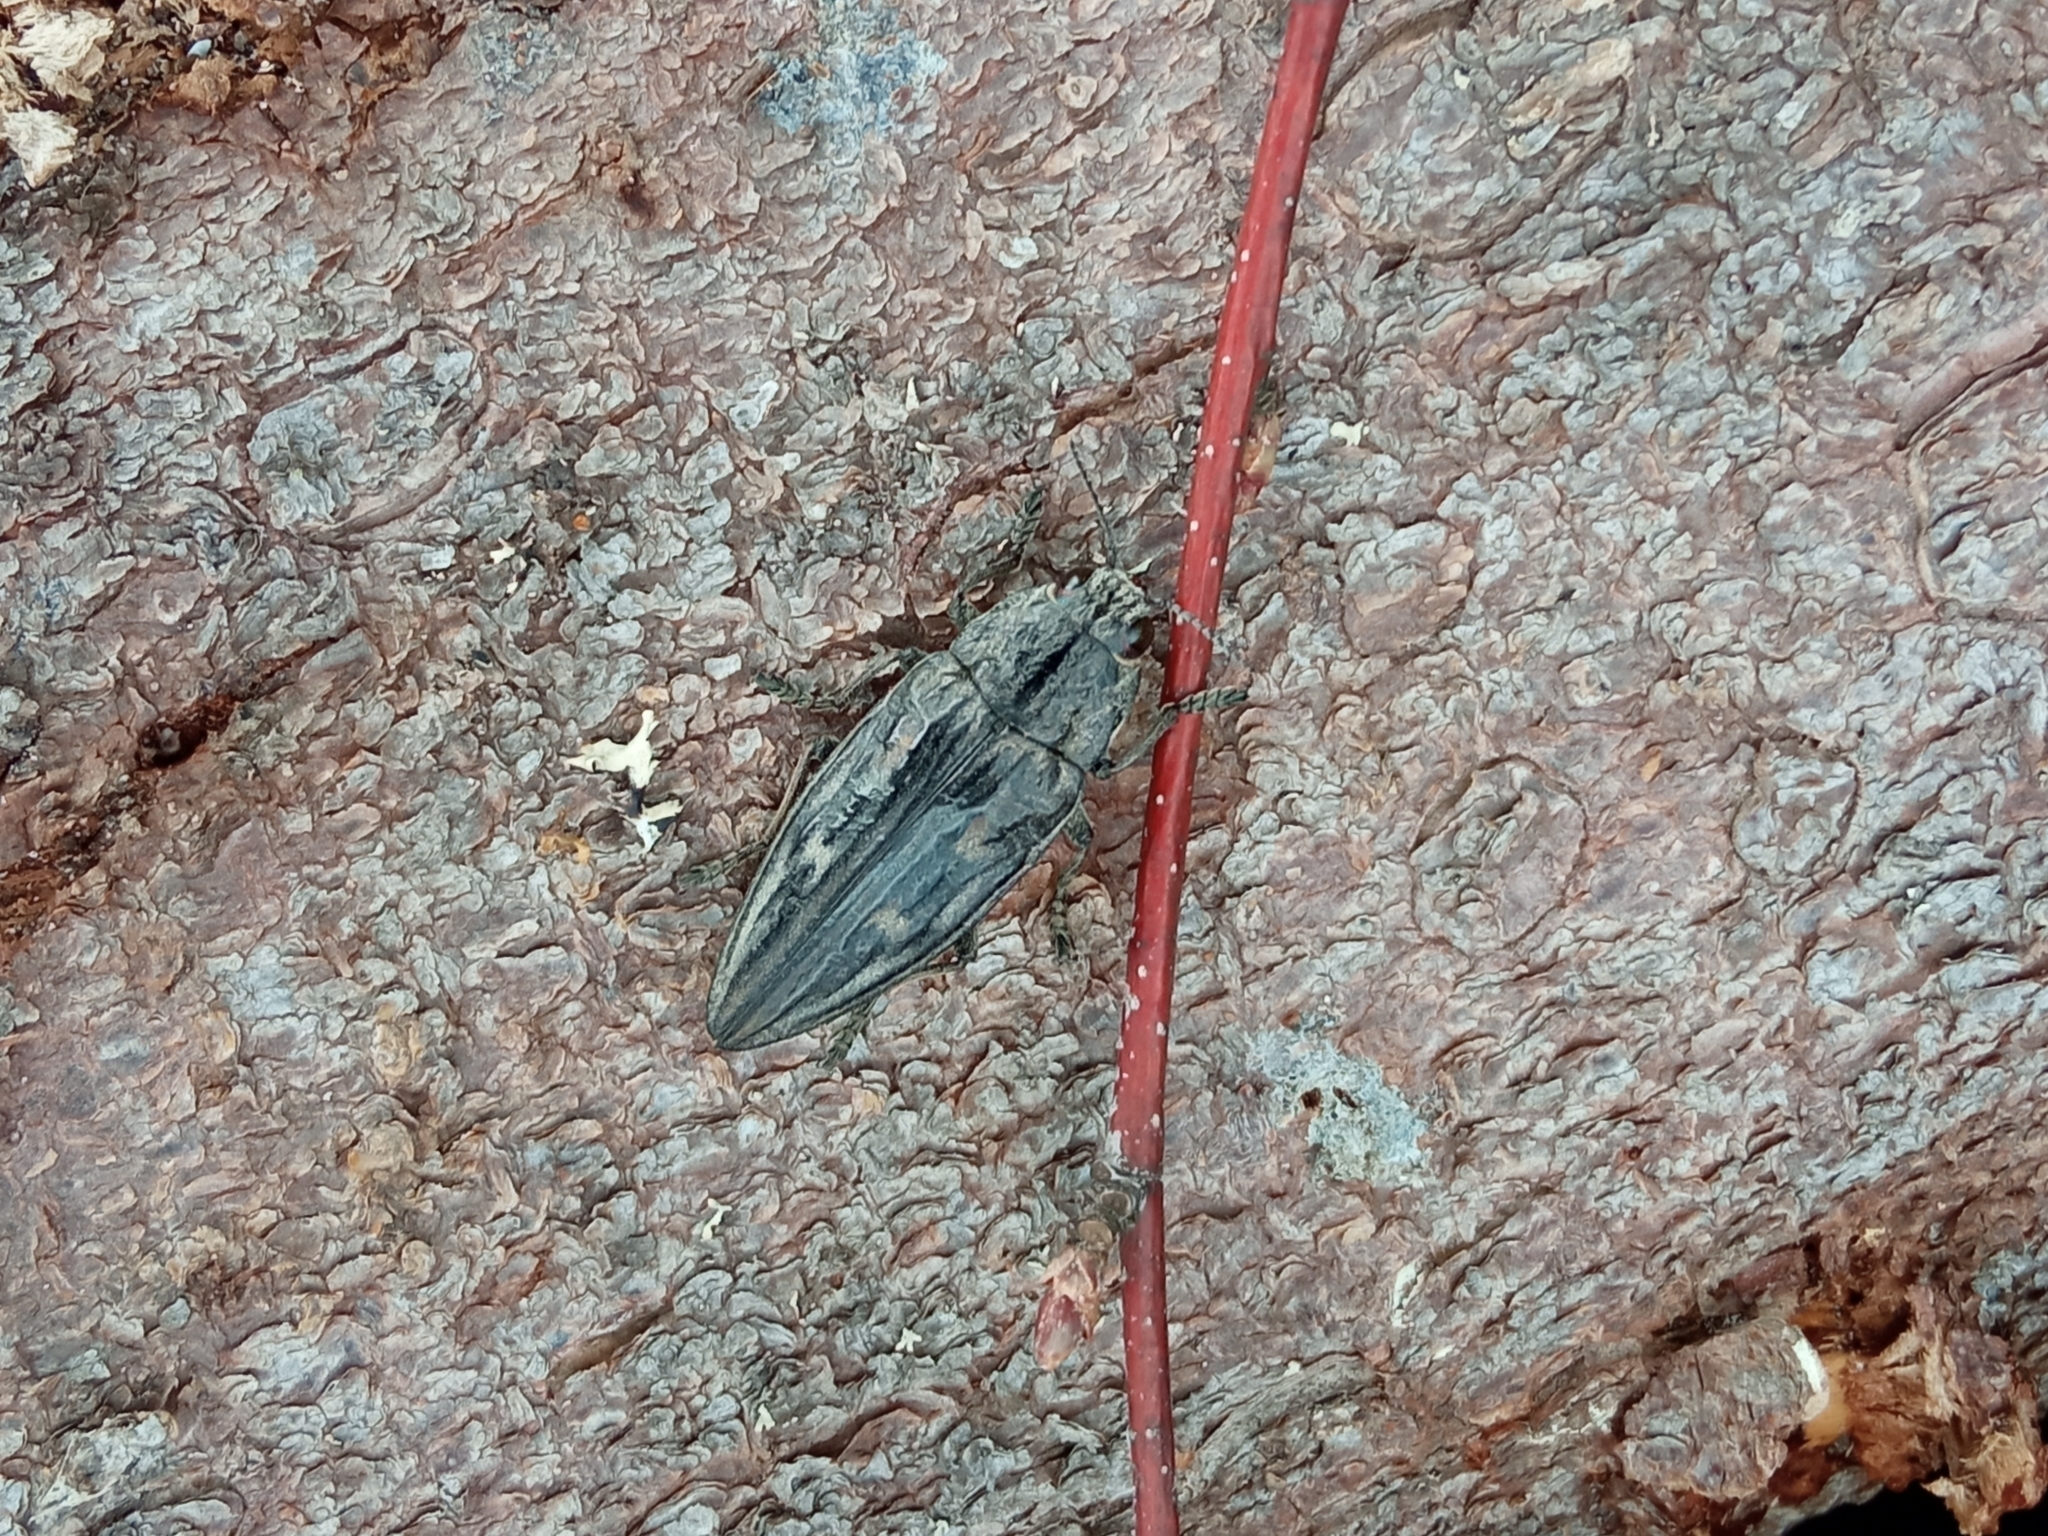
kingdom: Animalia
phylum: Arthropoda
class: Insecta
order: Coleoptera
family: Buprestidae
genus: Chalcophora
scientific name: Chalcophora mariana
